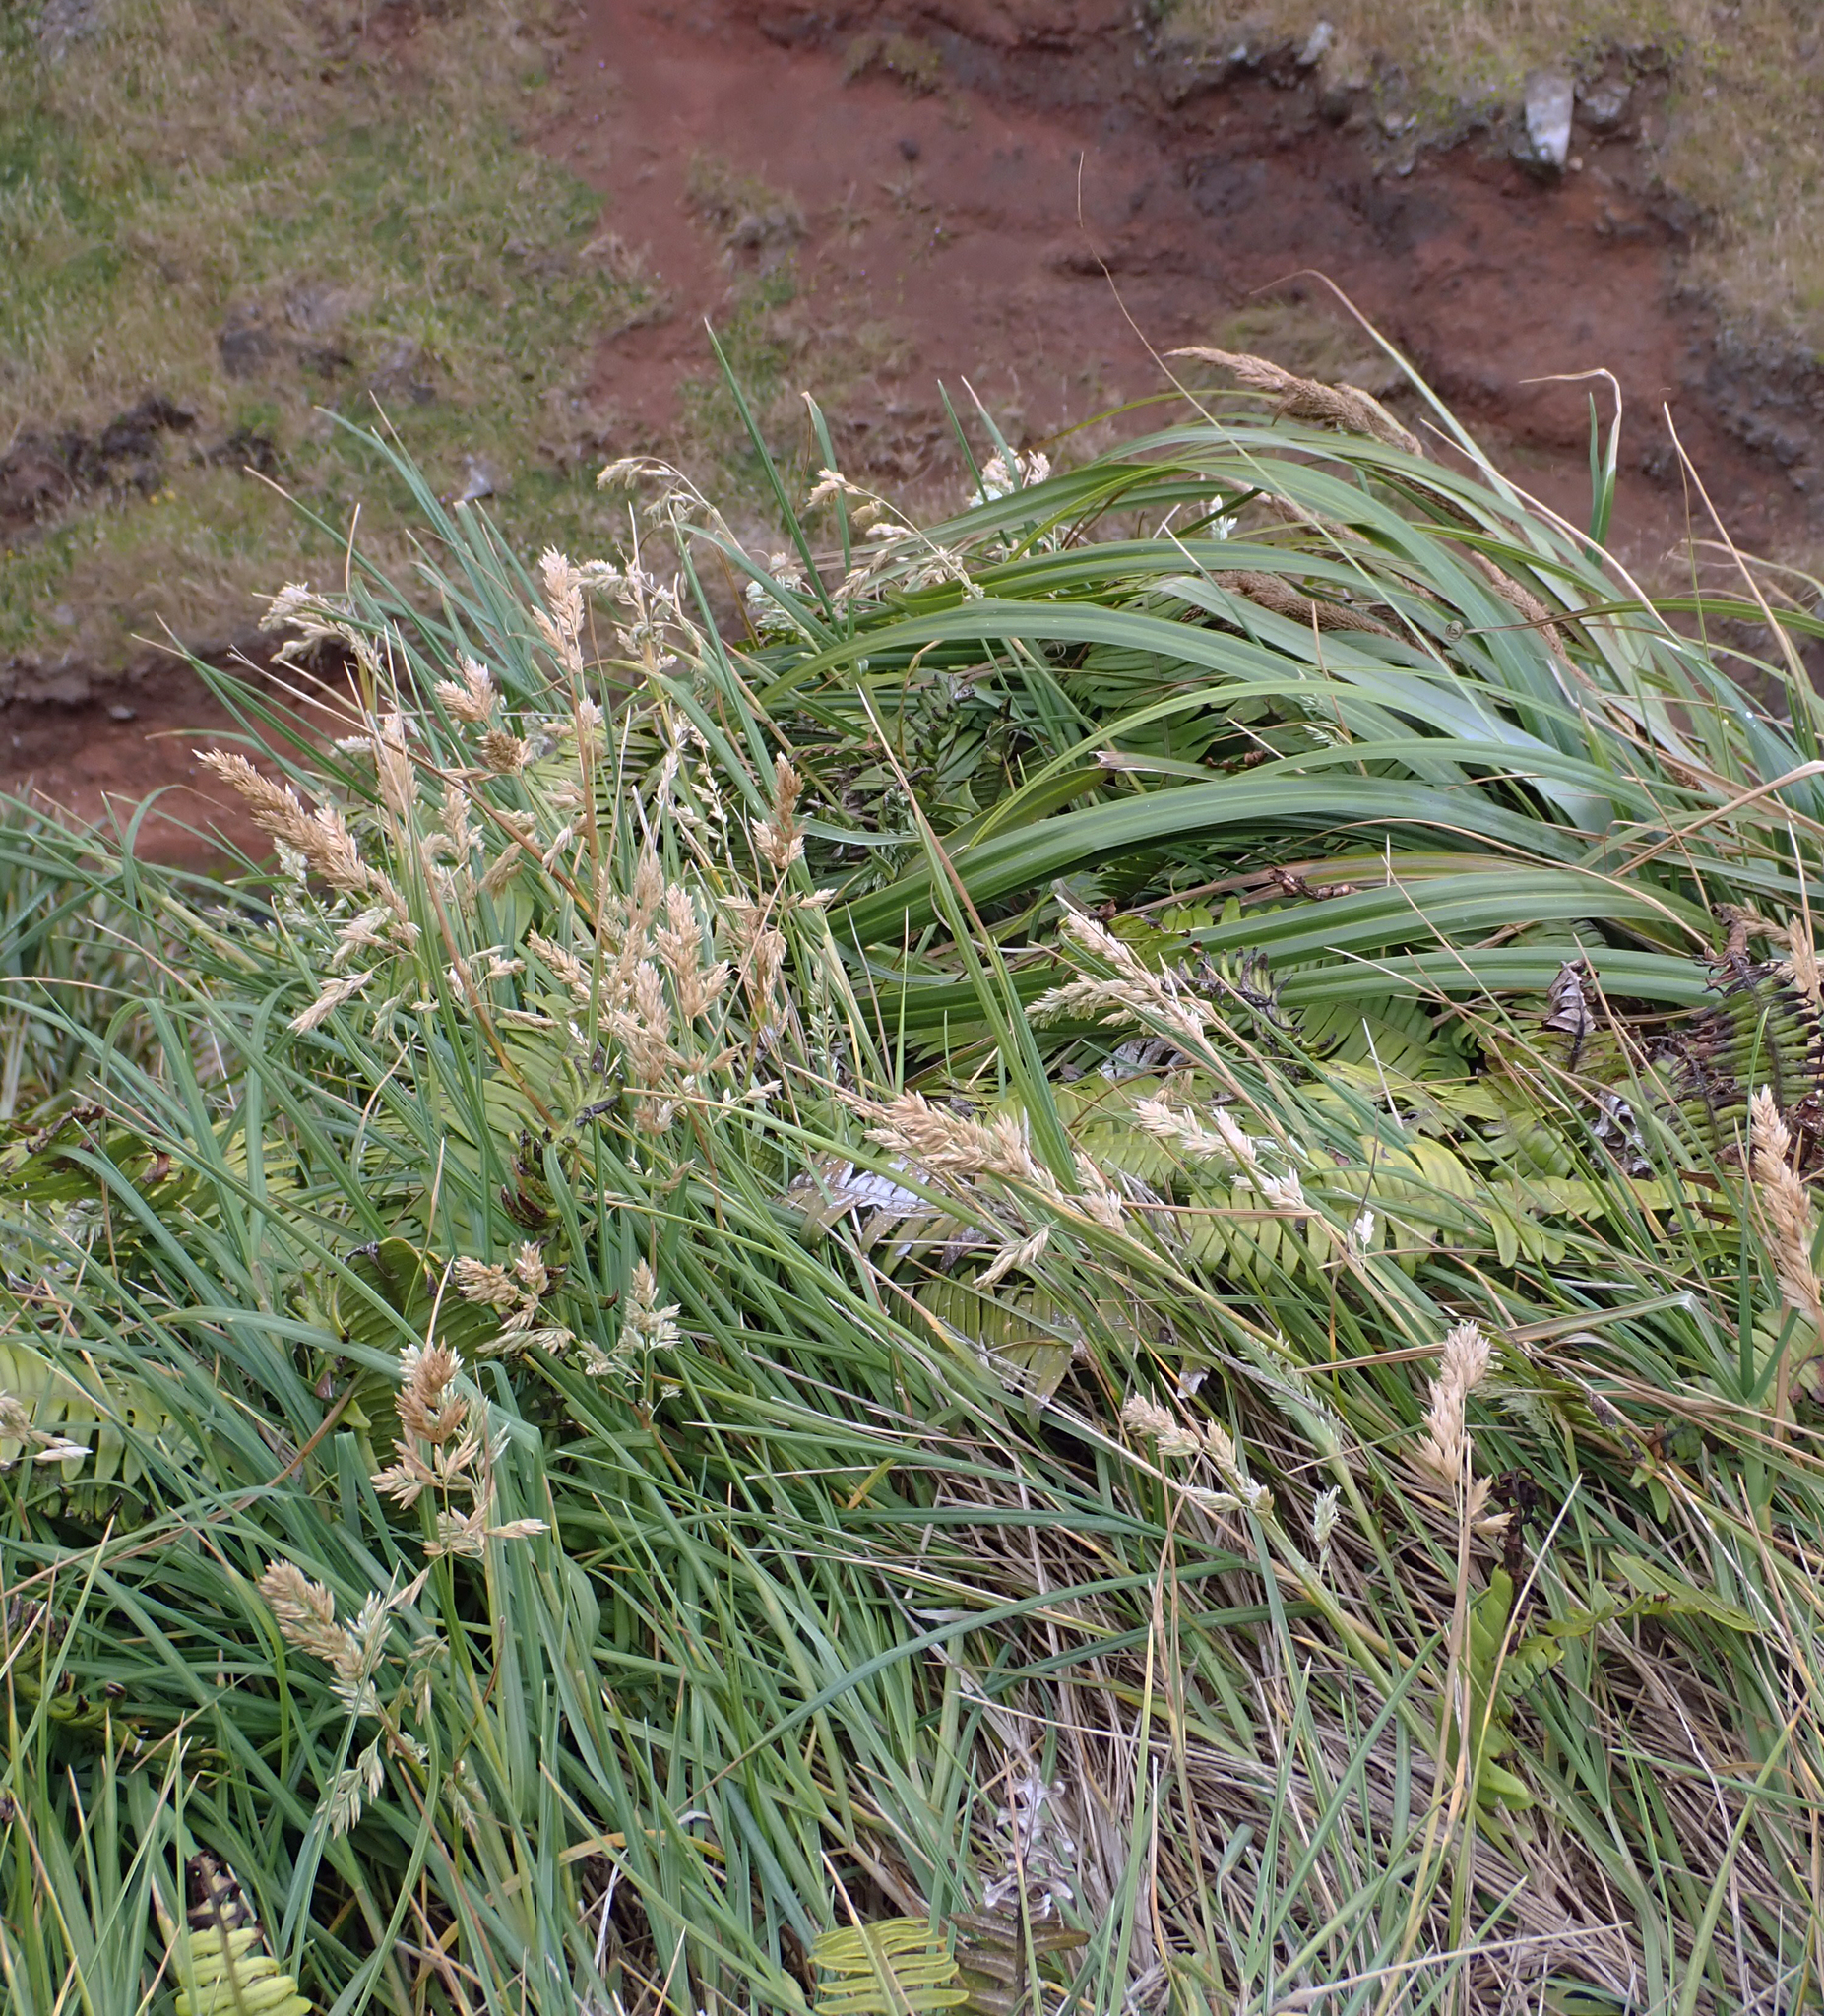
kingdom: Plantae
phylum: Tracheophyta
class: Liliopsida
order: Poales
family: Poaceae
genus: Poa
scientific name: Poa chathamica
